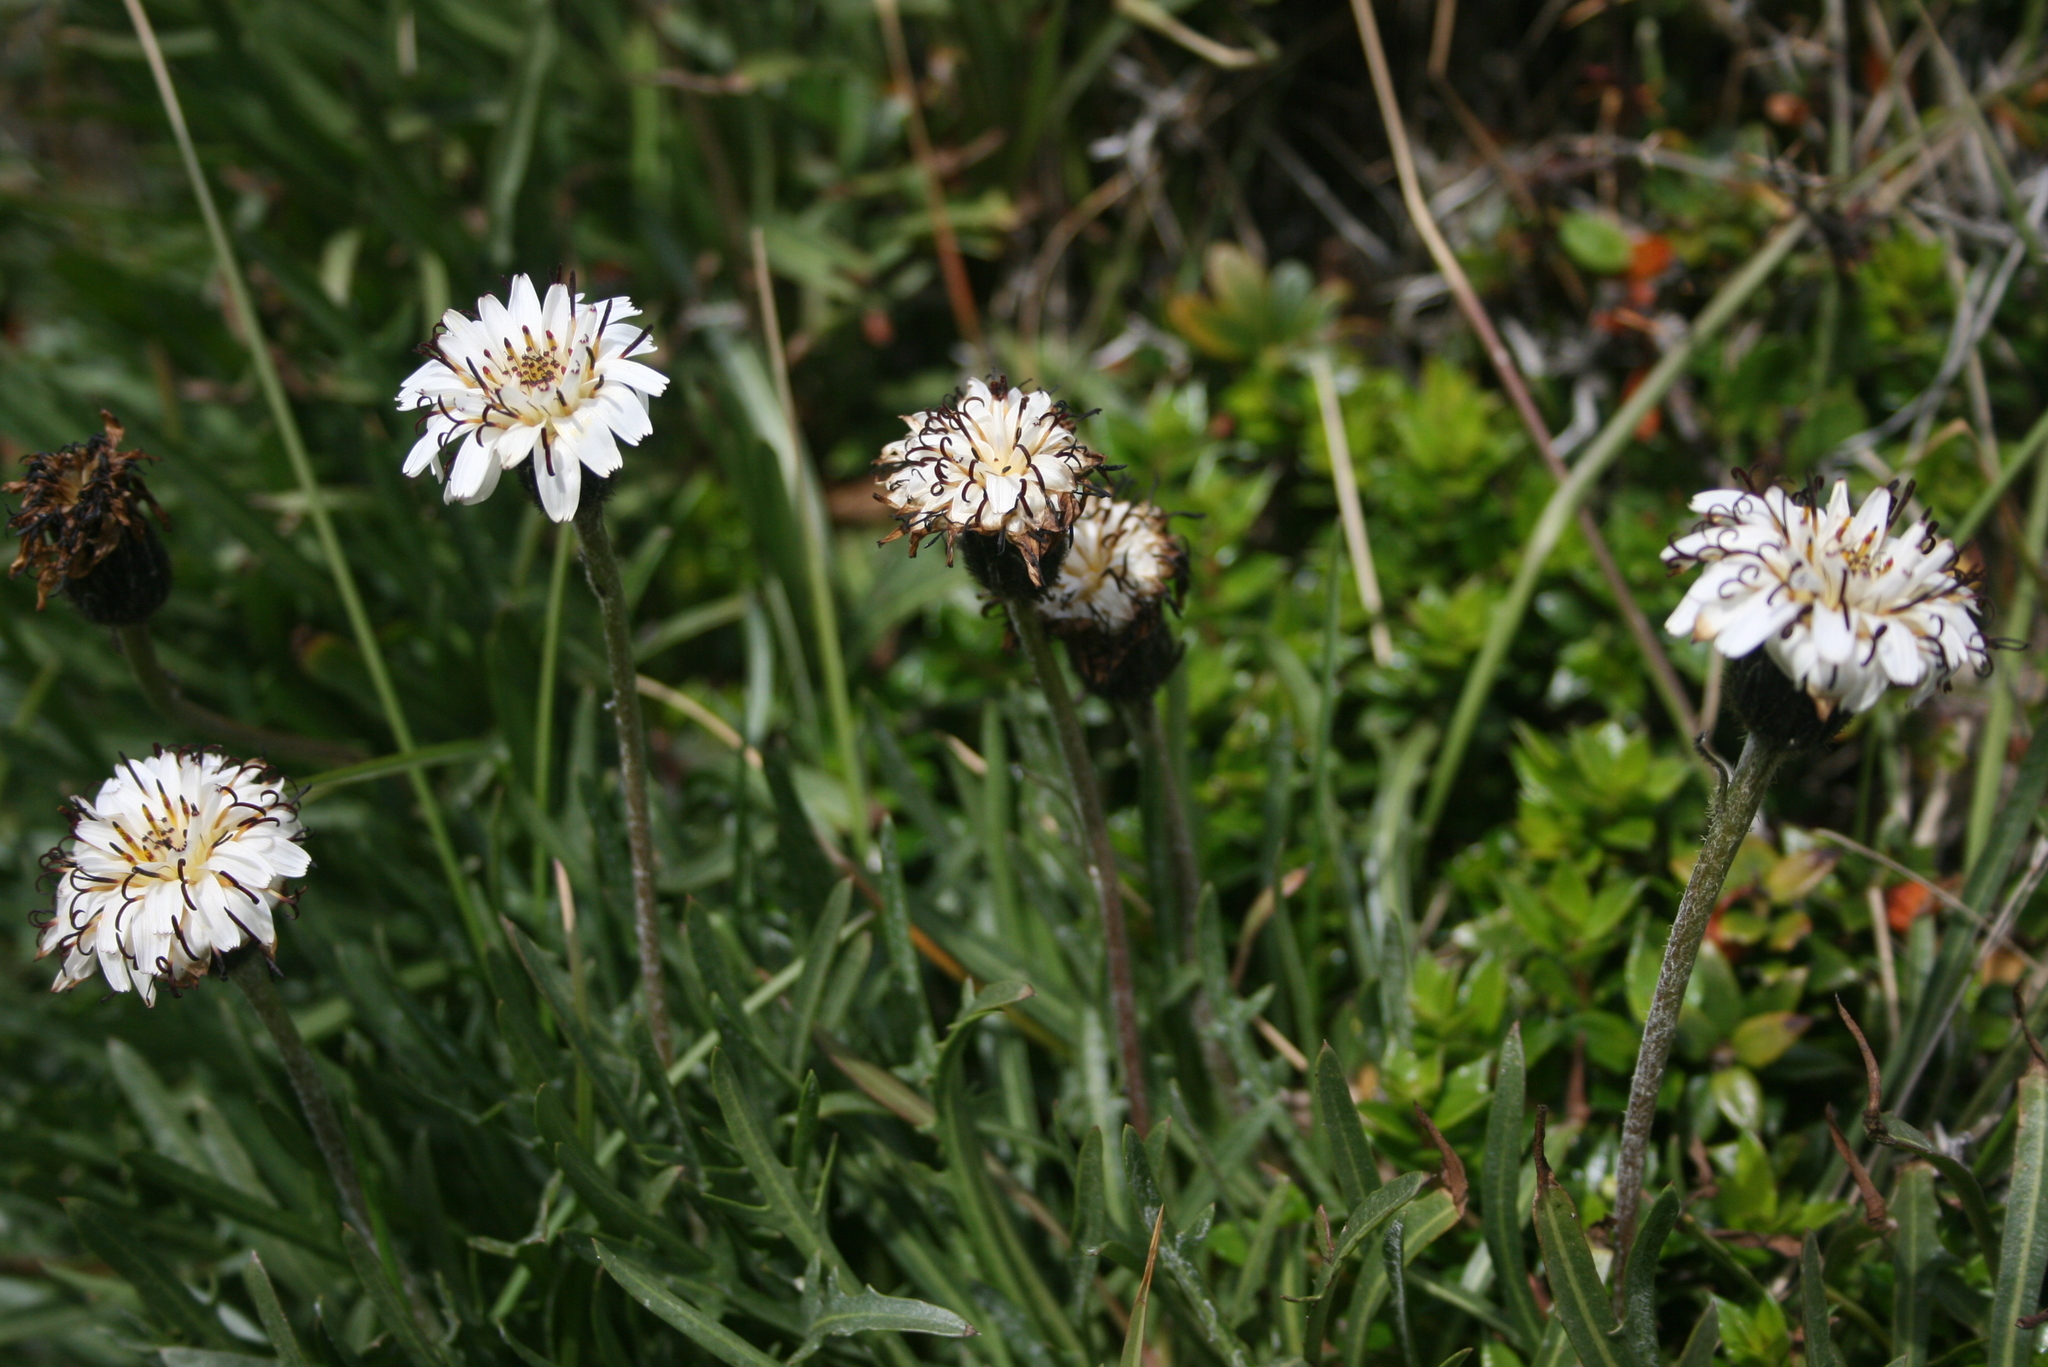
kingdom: Plantae
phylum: Tracheophyta
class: Magnoliopsida
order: Asterales
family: Asteraceae
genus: Hypochaeris
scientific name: Hypochaeris incana
